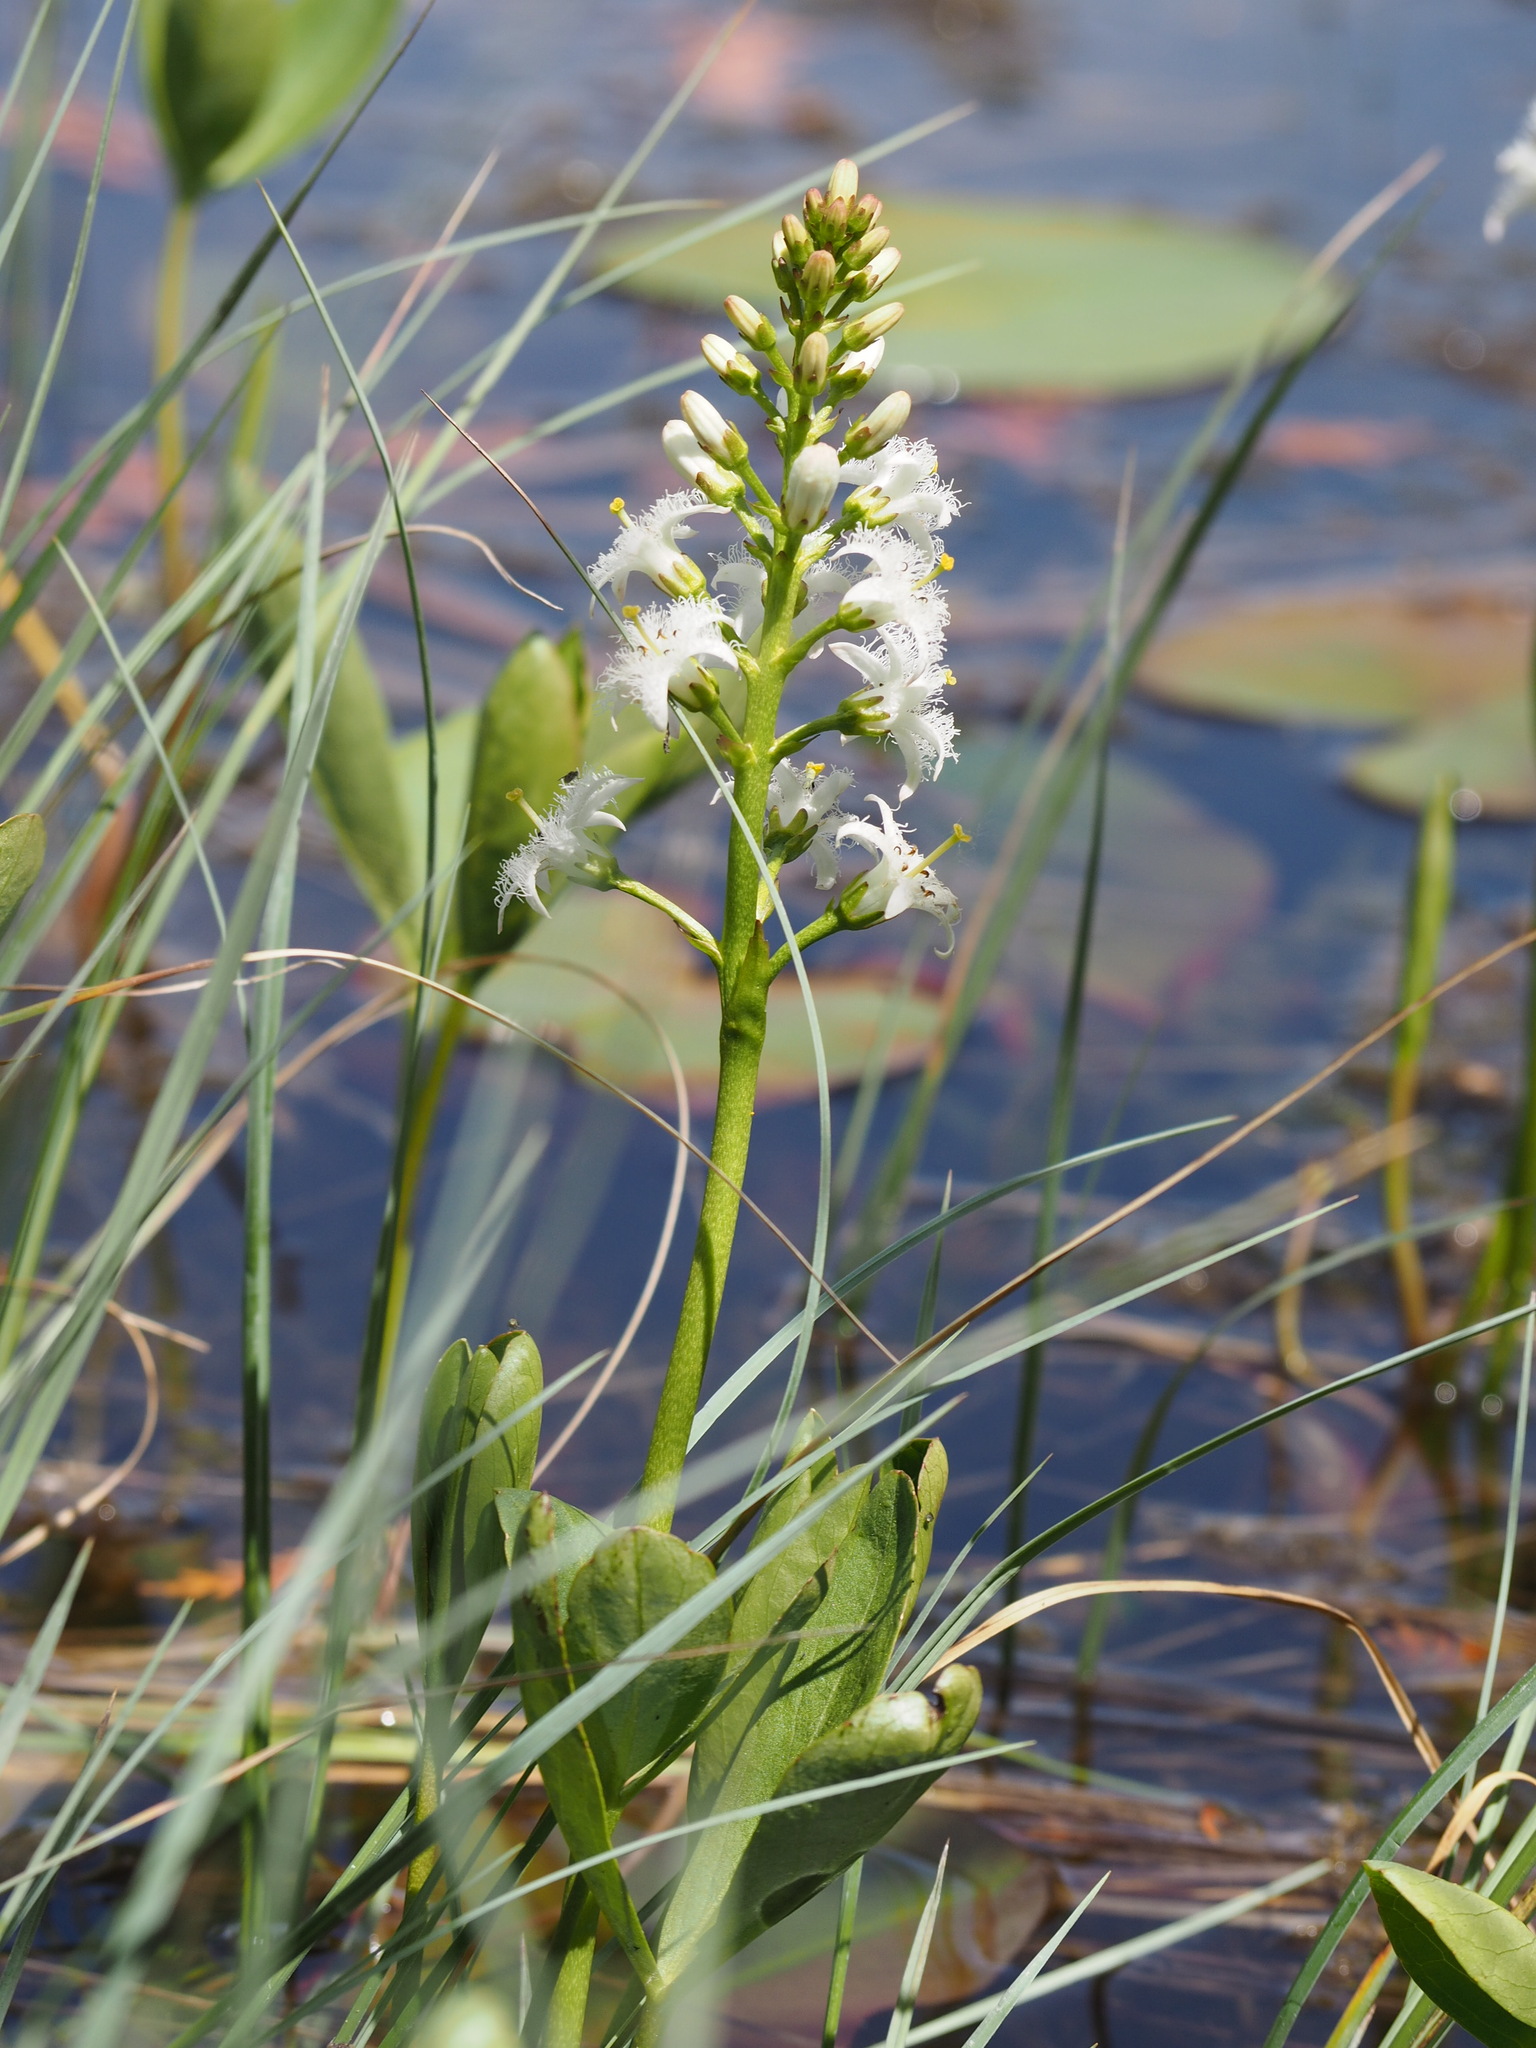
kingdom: Plantae
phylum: Tracheophyta
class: Magnoliopsida
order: Asterales
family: Menyanthaceae
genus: Menyanthes
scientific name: Menyanthes trifoliata
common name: Bogbean
